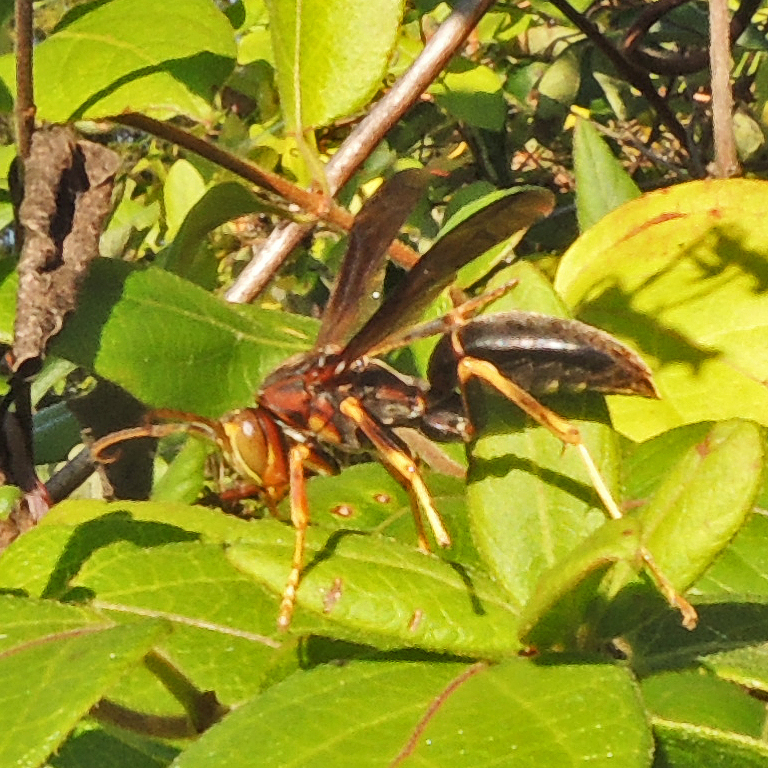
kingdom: Animalia
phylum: Arthropoda
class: Insecta
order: Hymenoptera
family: Eumenidae
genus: Polistes
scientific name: Polistes metricus
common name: Metric paper wasp
